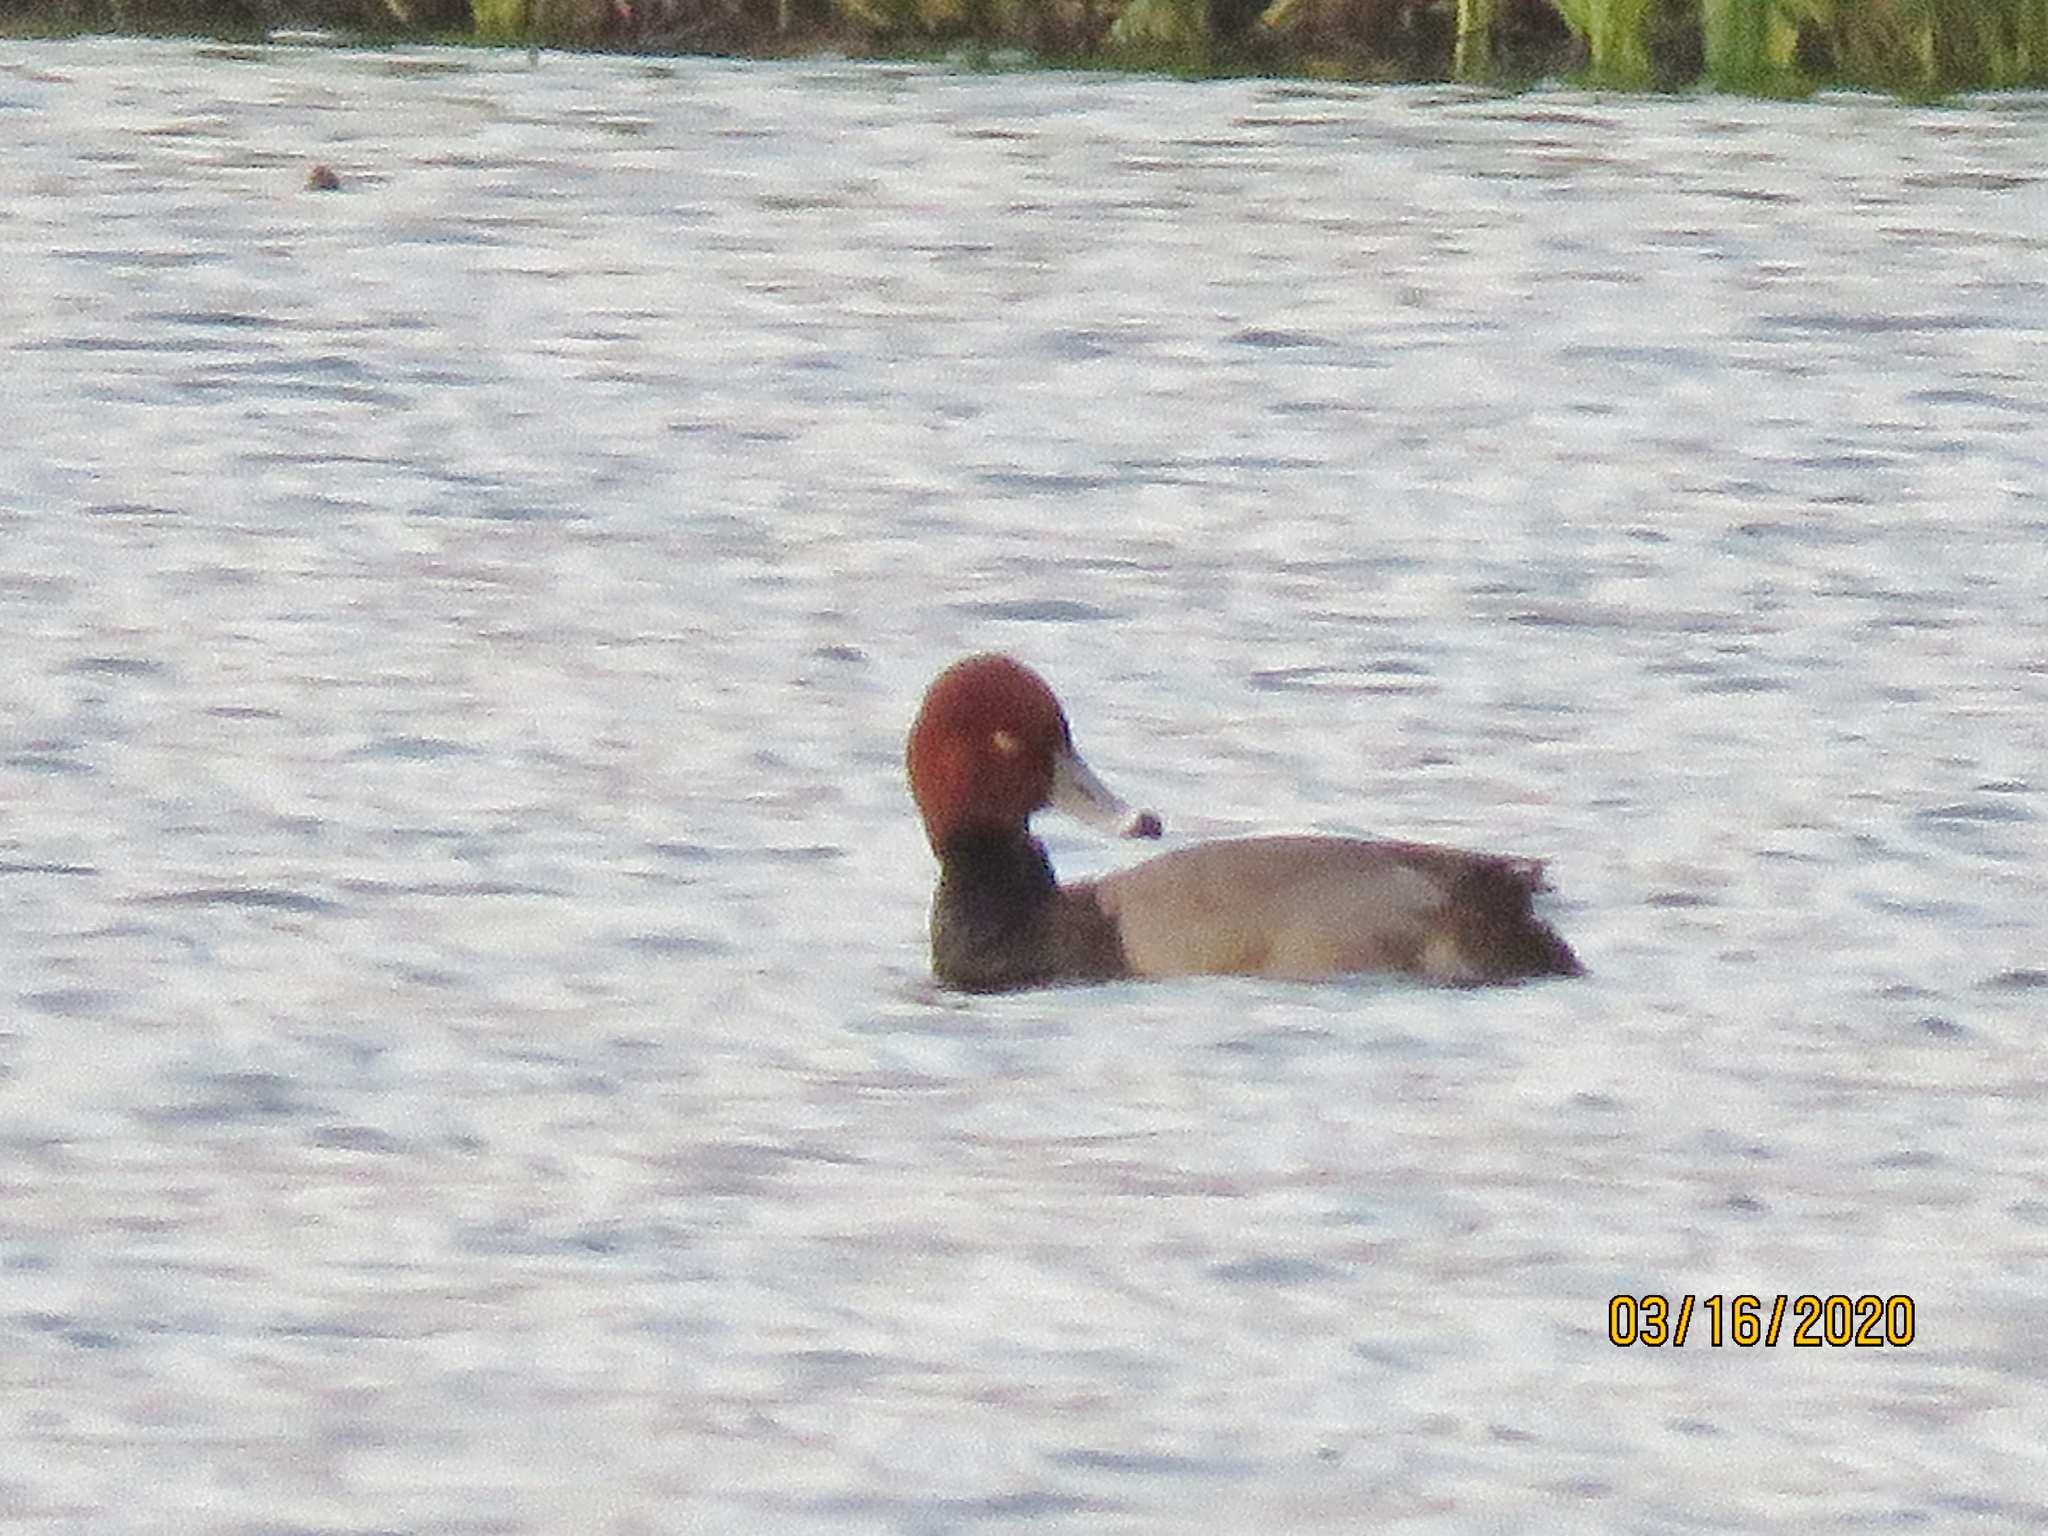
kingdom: Animalia
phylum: Chordata
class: Aves
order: Anseriformes
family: Anatidae
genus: Aythya
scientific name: Aythya americana
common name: Redhead
